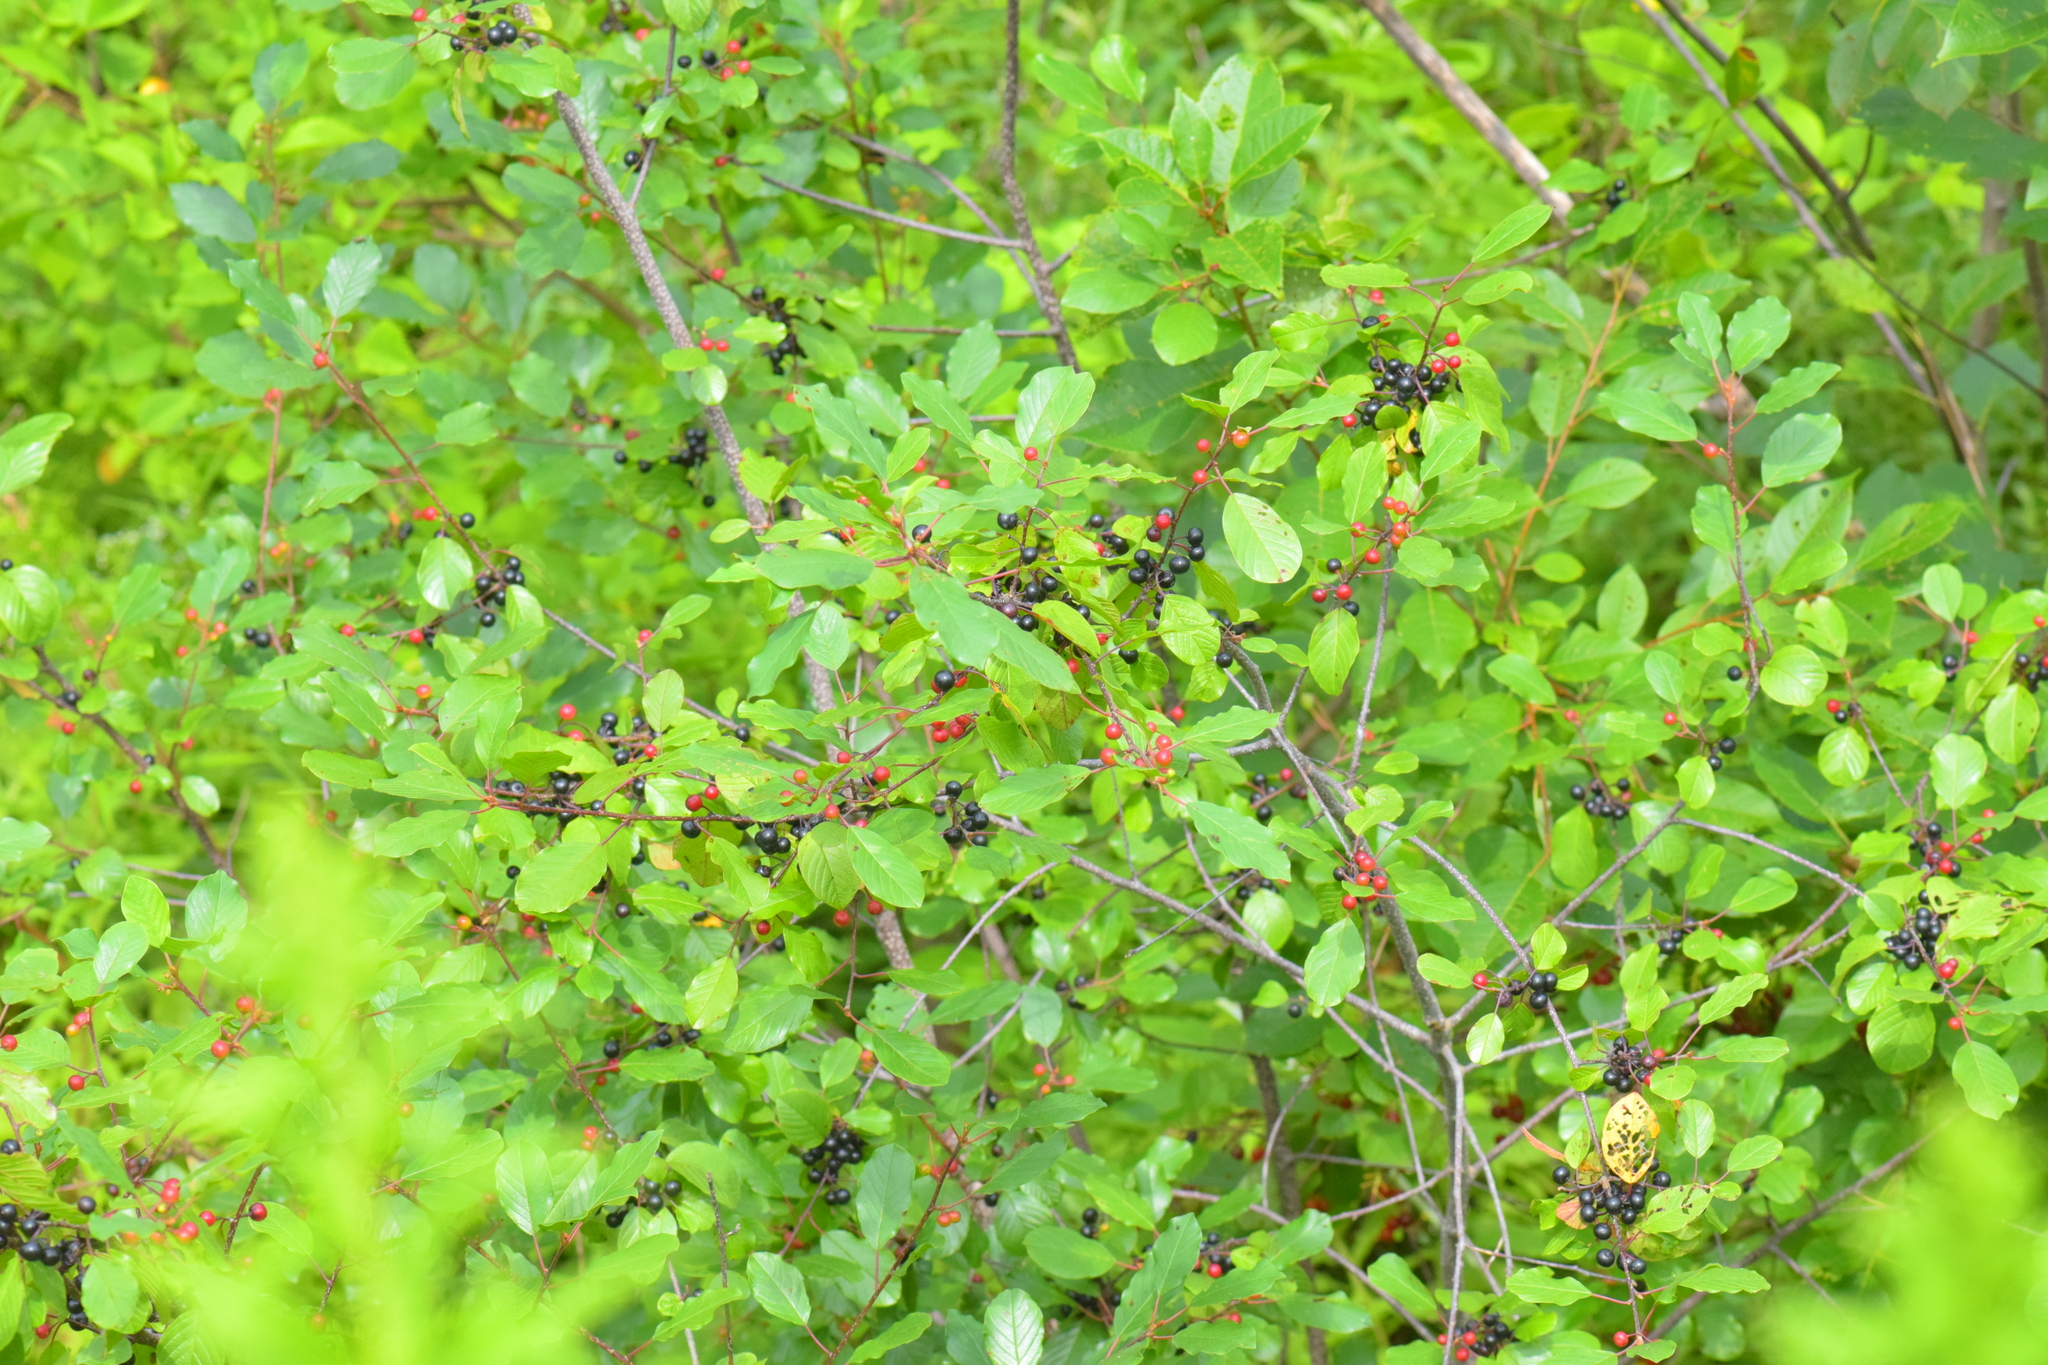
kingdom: Plantae
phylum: Tracheophyta
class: Magnoliopsida
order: Rosales
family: Rhamnaceae
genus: Frangula
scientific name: Frangula alnus
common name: Alder buckthorn
